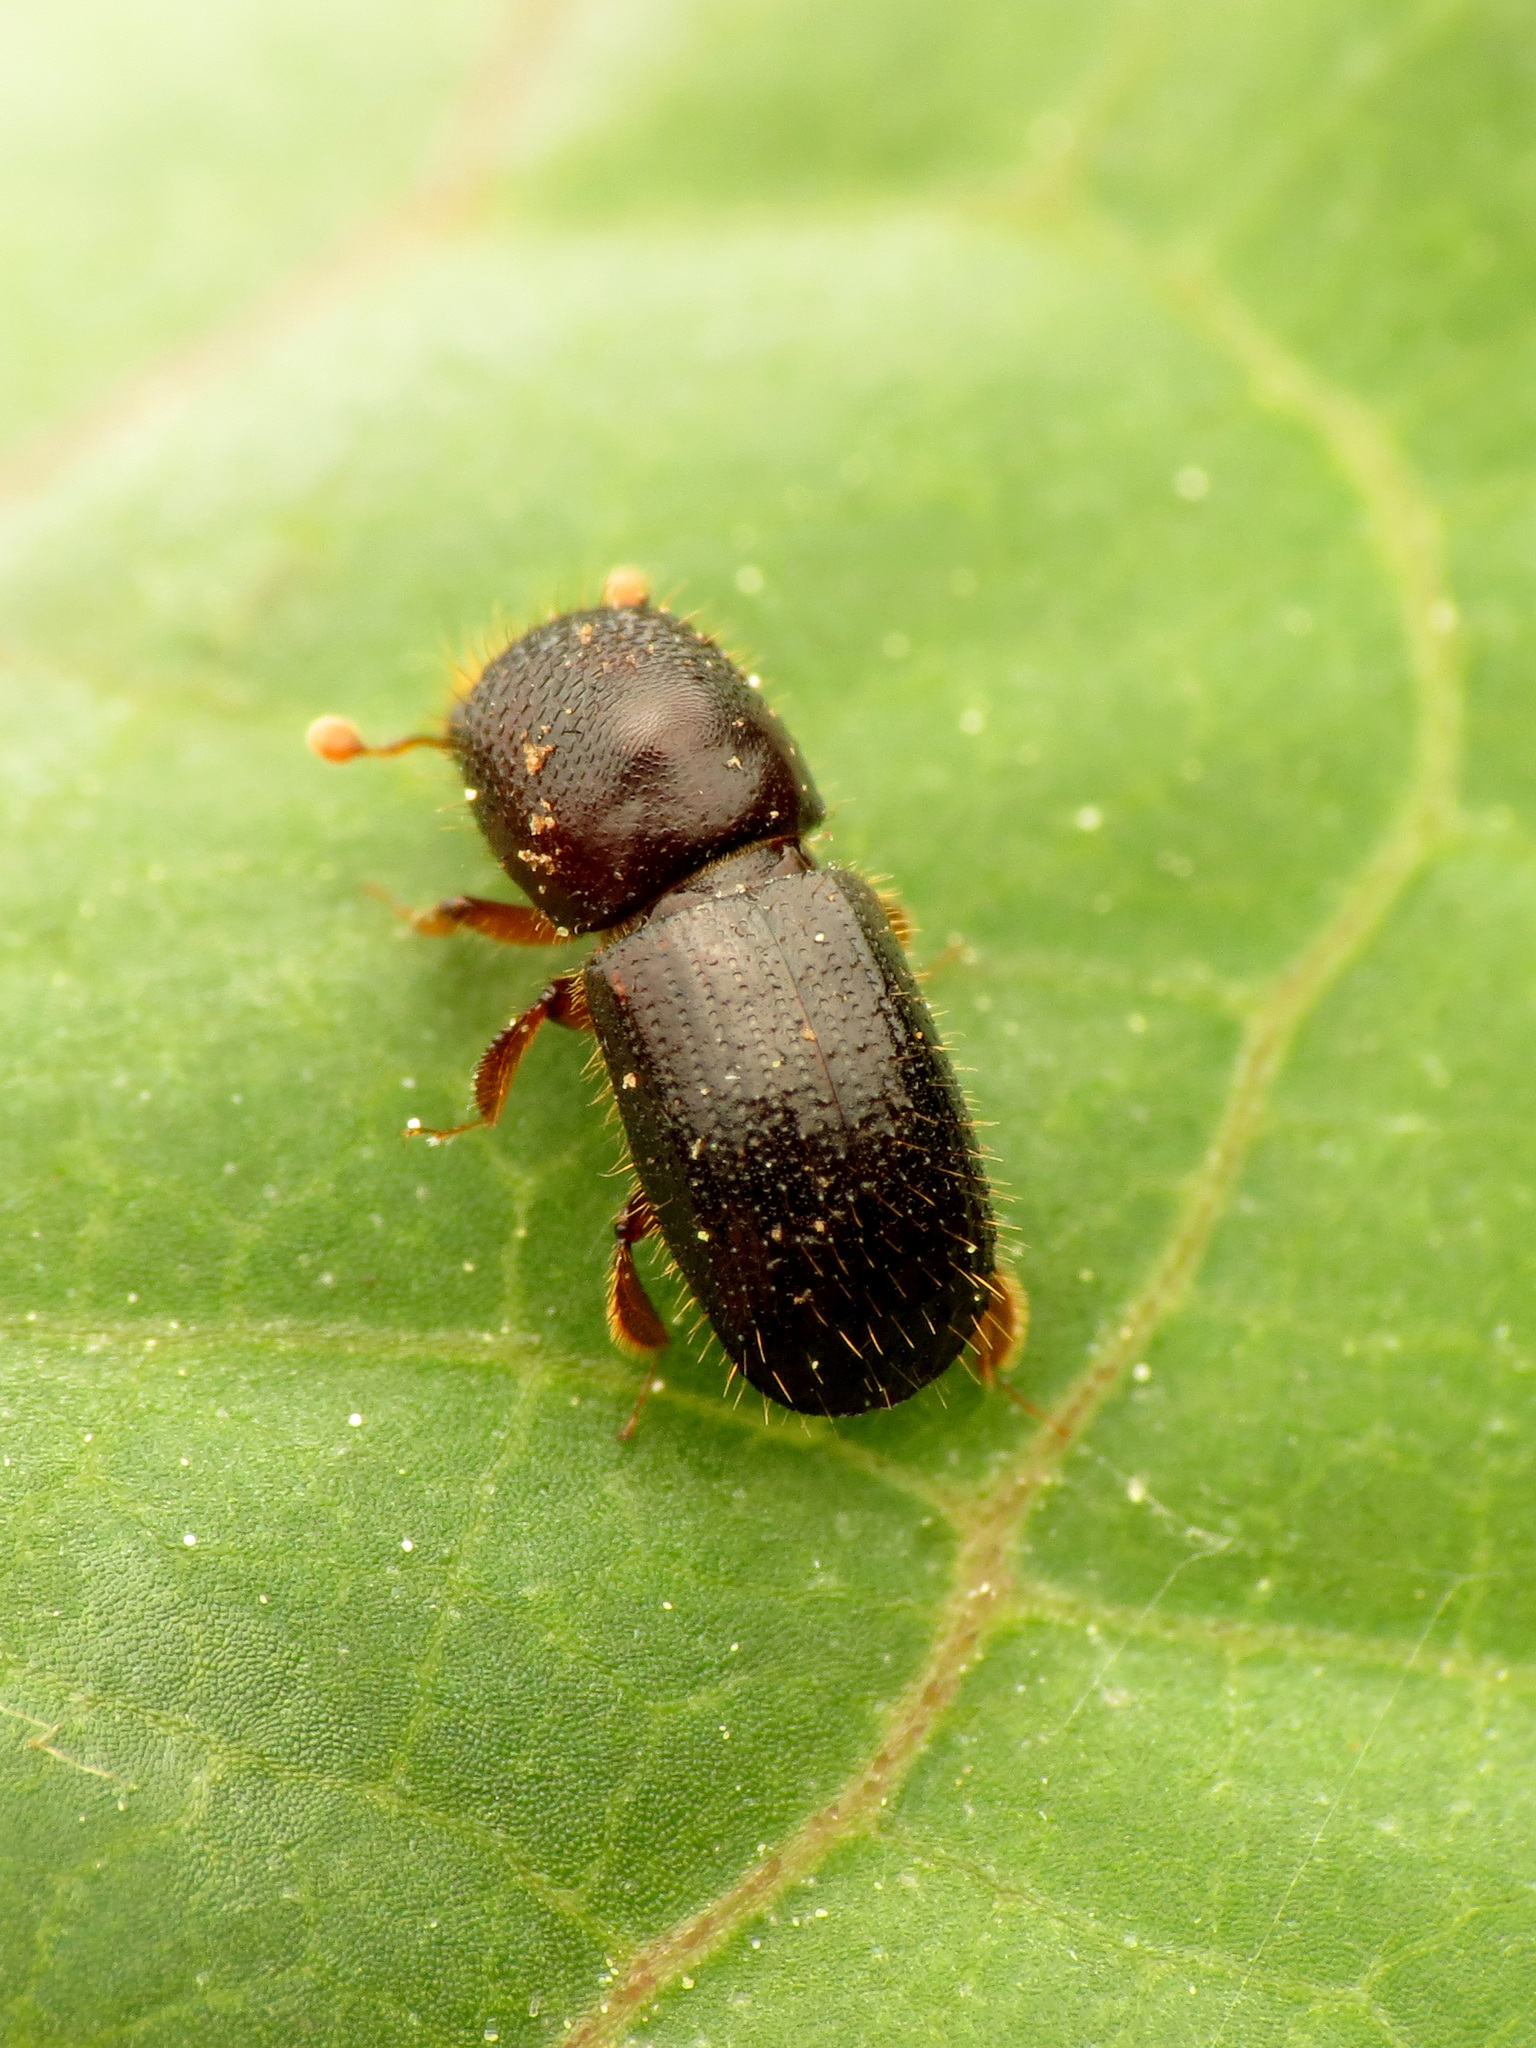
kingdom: Animalia
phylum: Arthropoda
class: Insecta
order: Coleoptera
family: Curculionidae
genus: Xylosandrus
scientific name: Xylosandrus germanus
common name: Bark beetle
